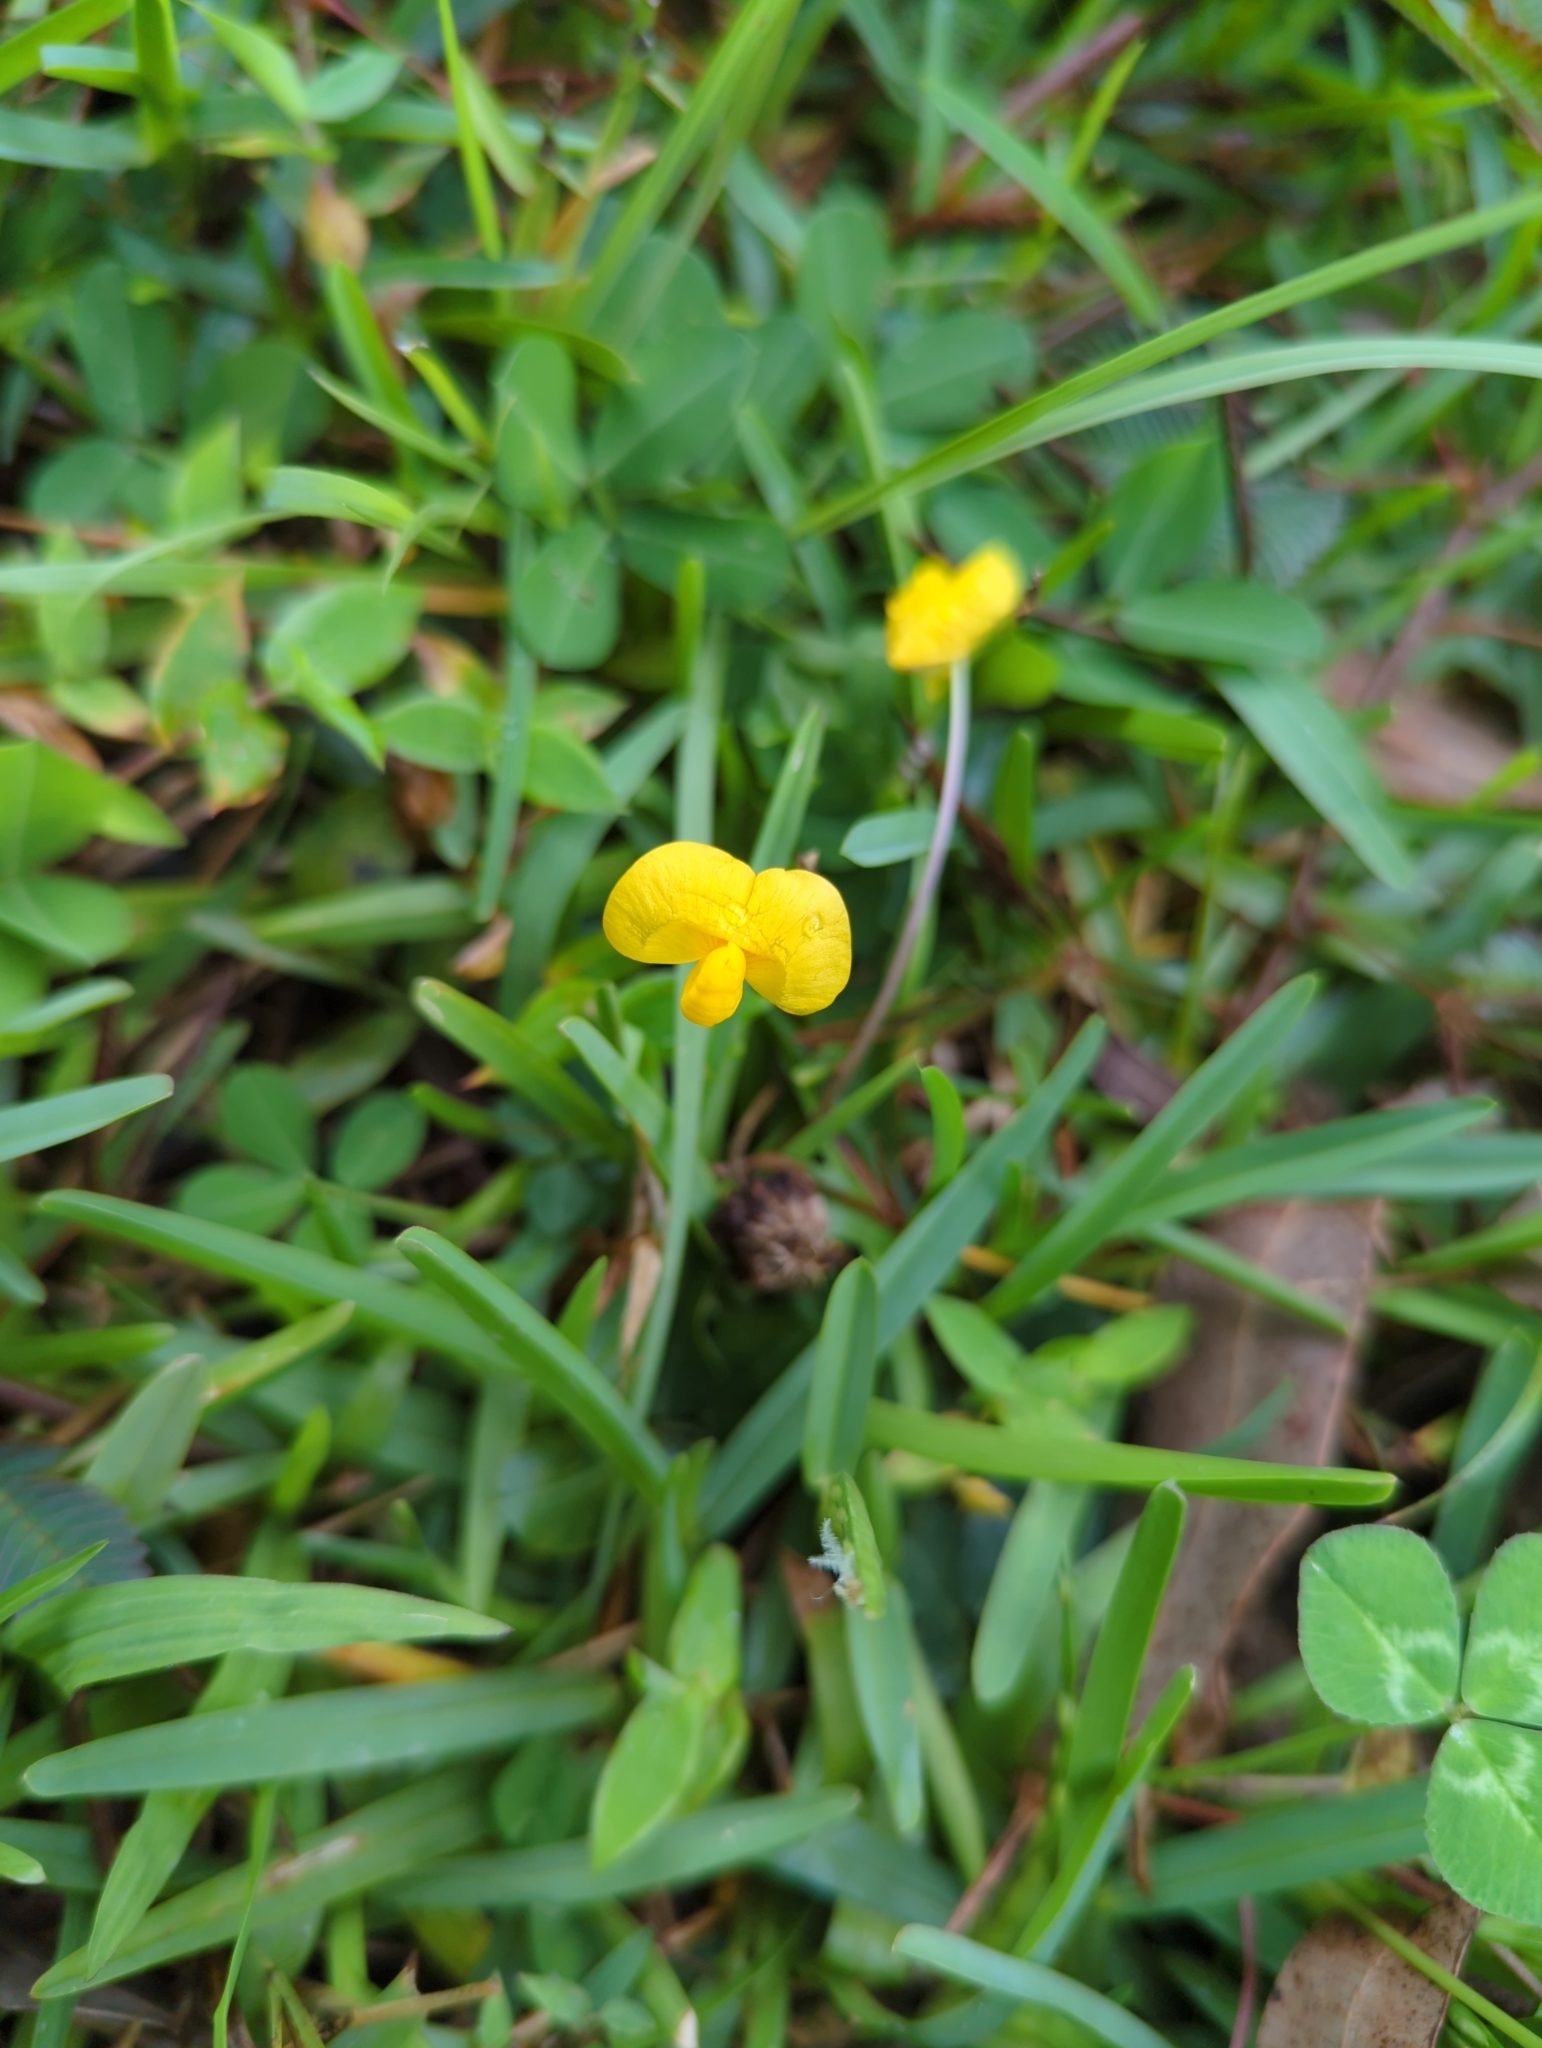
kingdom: Plantae
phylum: Tracheophyta
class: Magnoliopsida
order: Fabales
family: Fabaceae
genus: Arachis
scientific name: Arachis pintoi
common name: Pinto peanut
